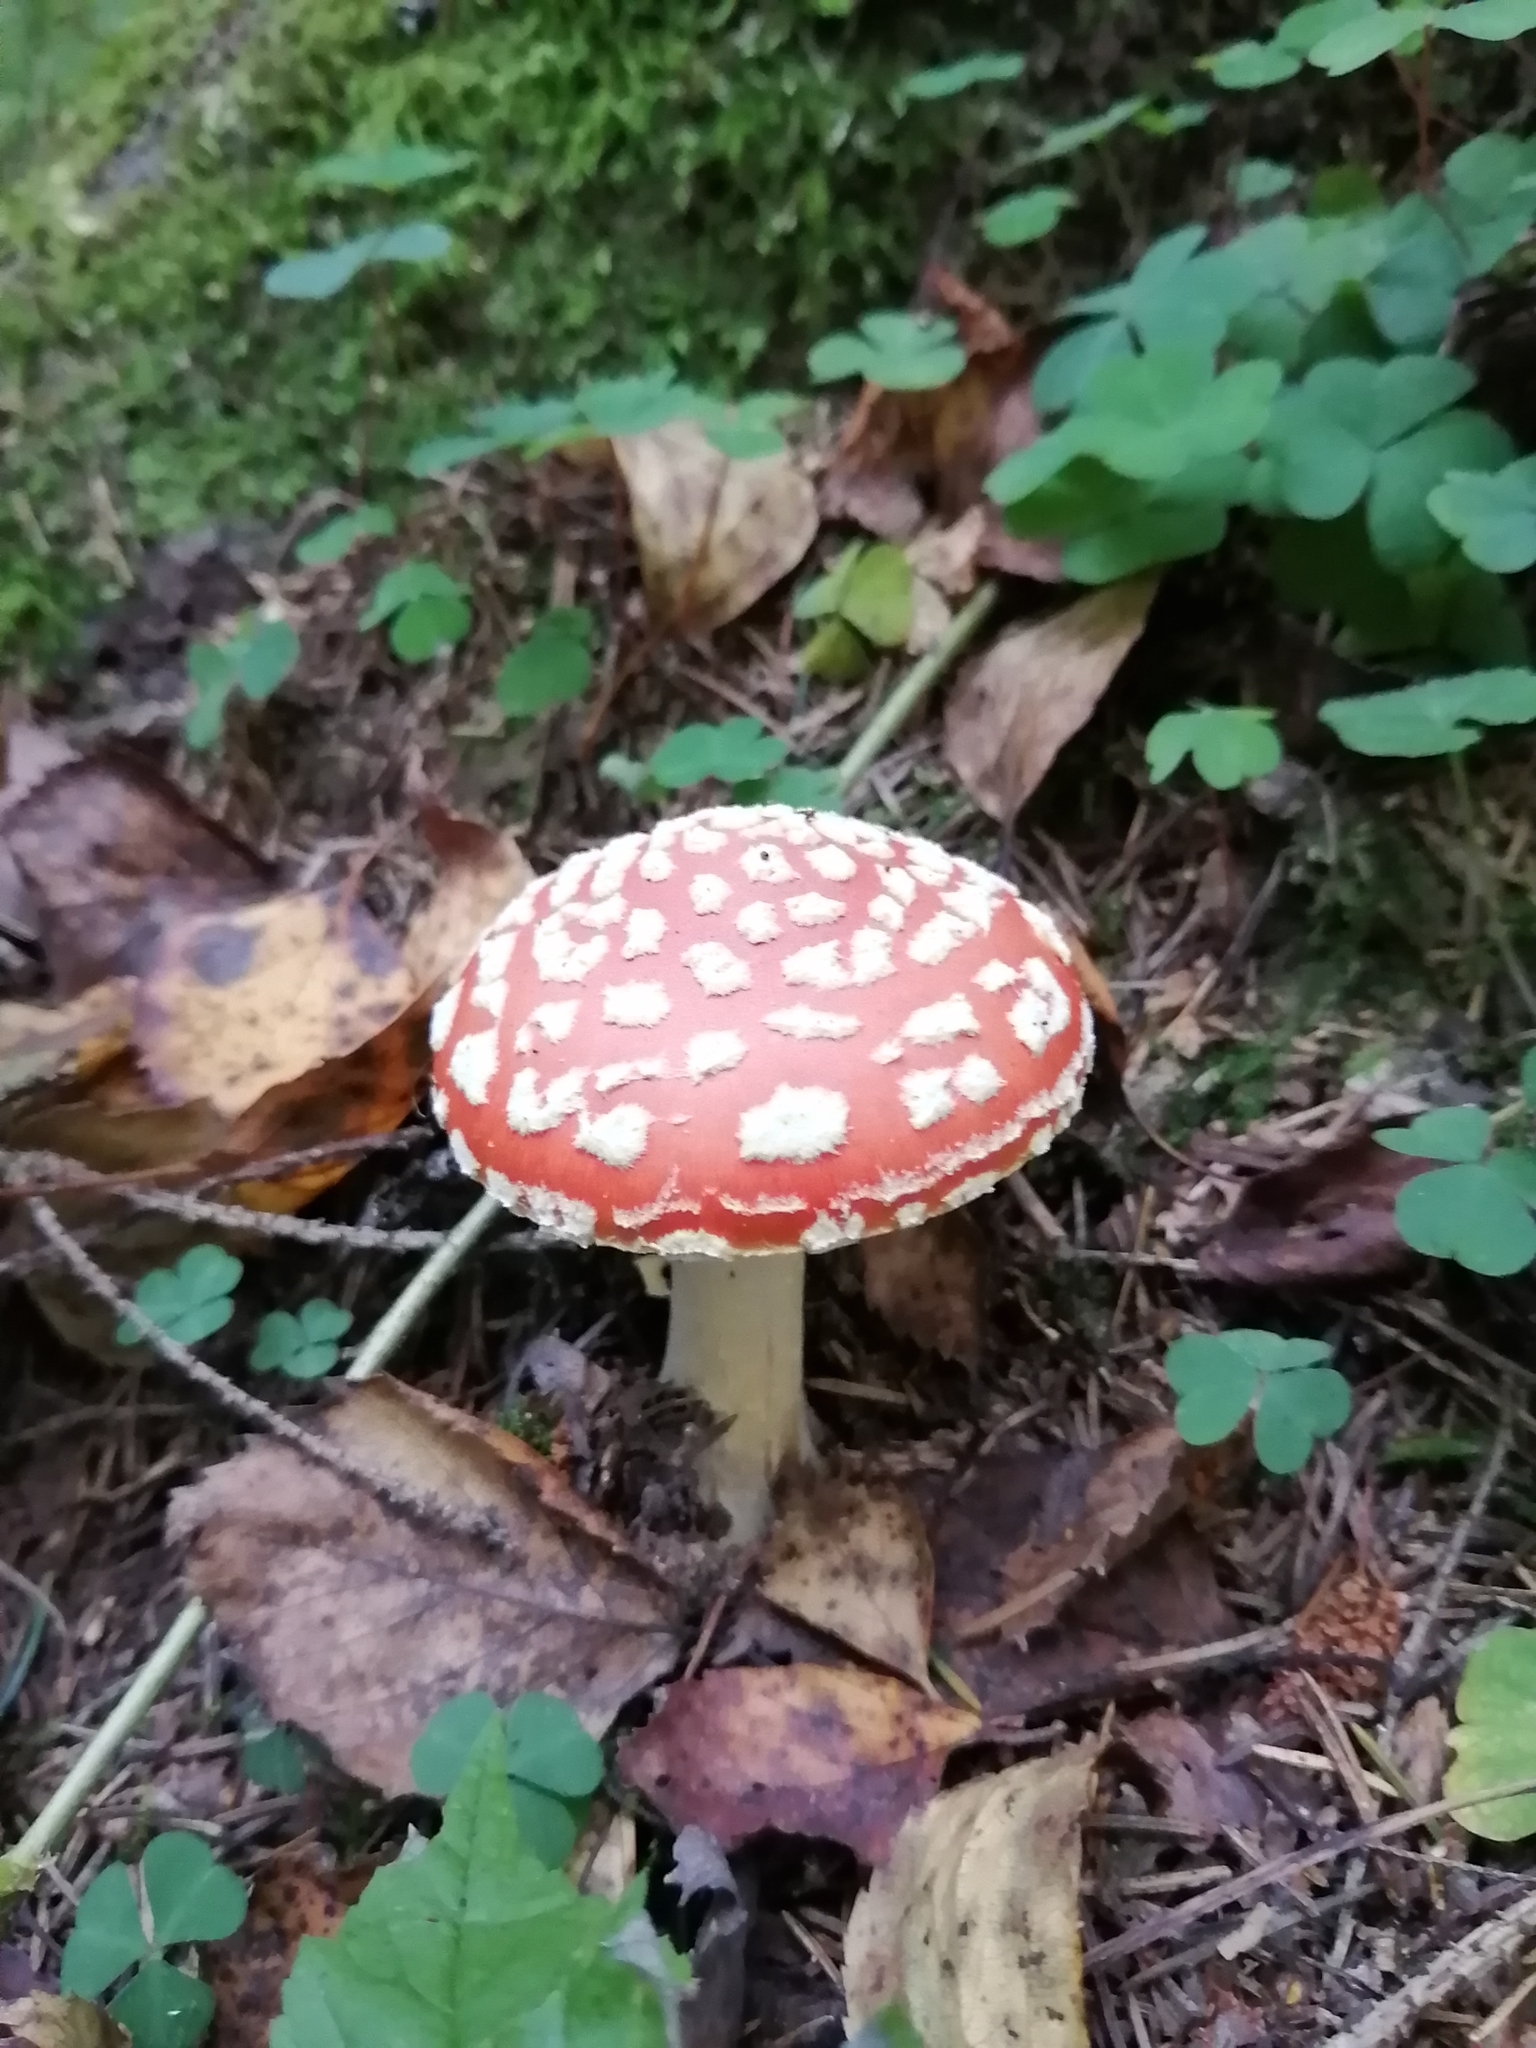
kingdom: Fungi
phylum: Basidiomycota
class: Agaricomycetes
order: Agaricales
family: Amanitaceae
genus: Amanita
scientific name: Amanita muscaria
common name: Fly agaric
